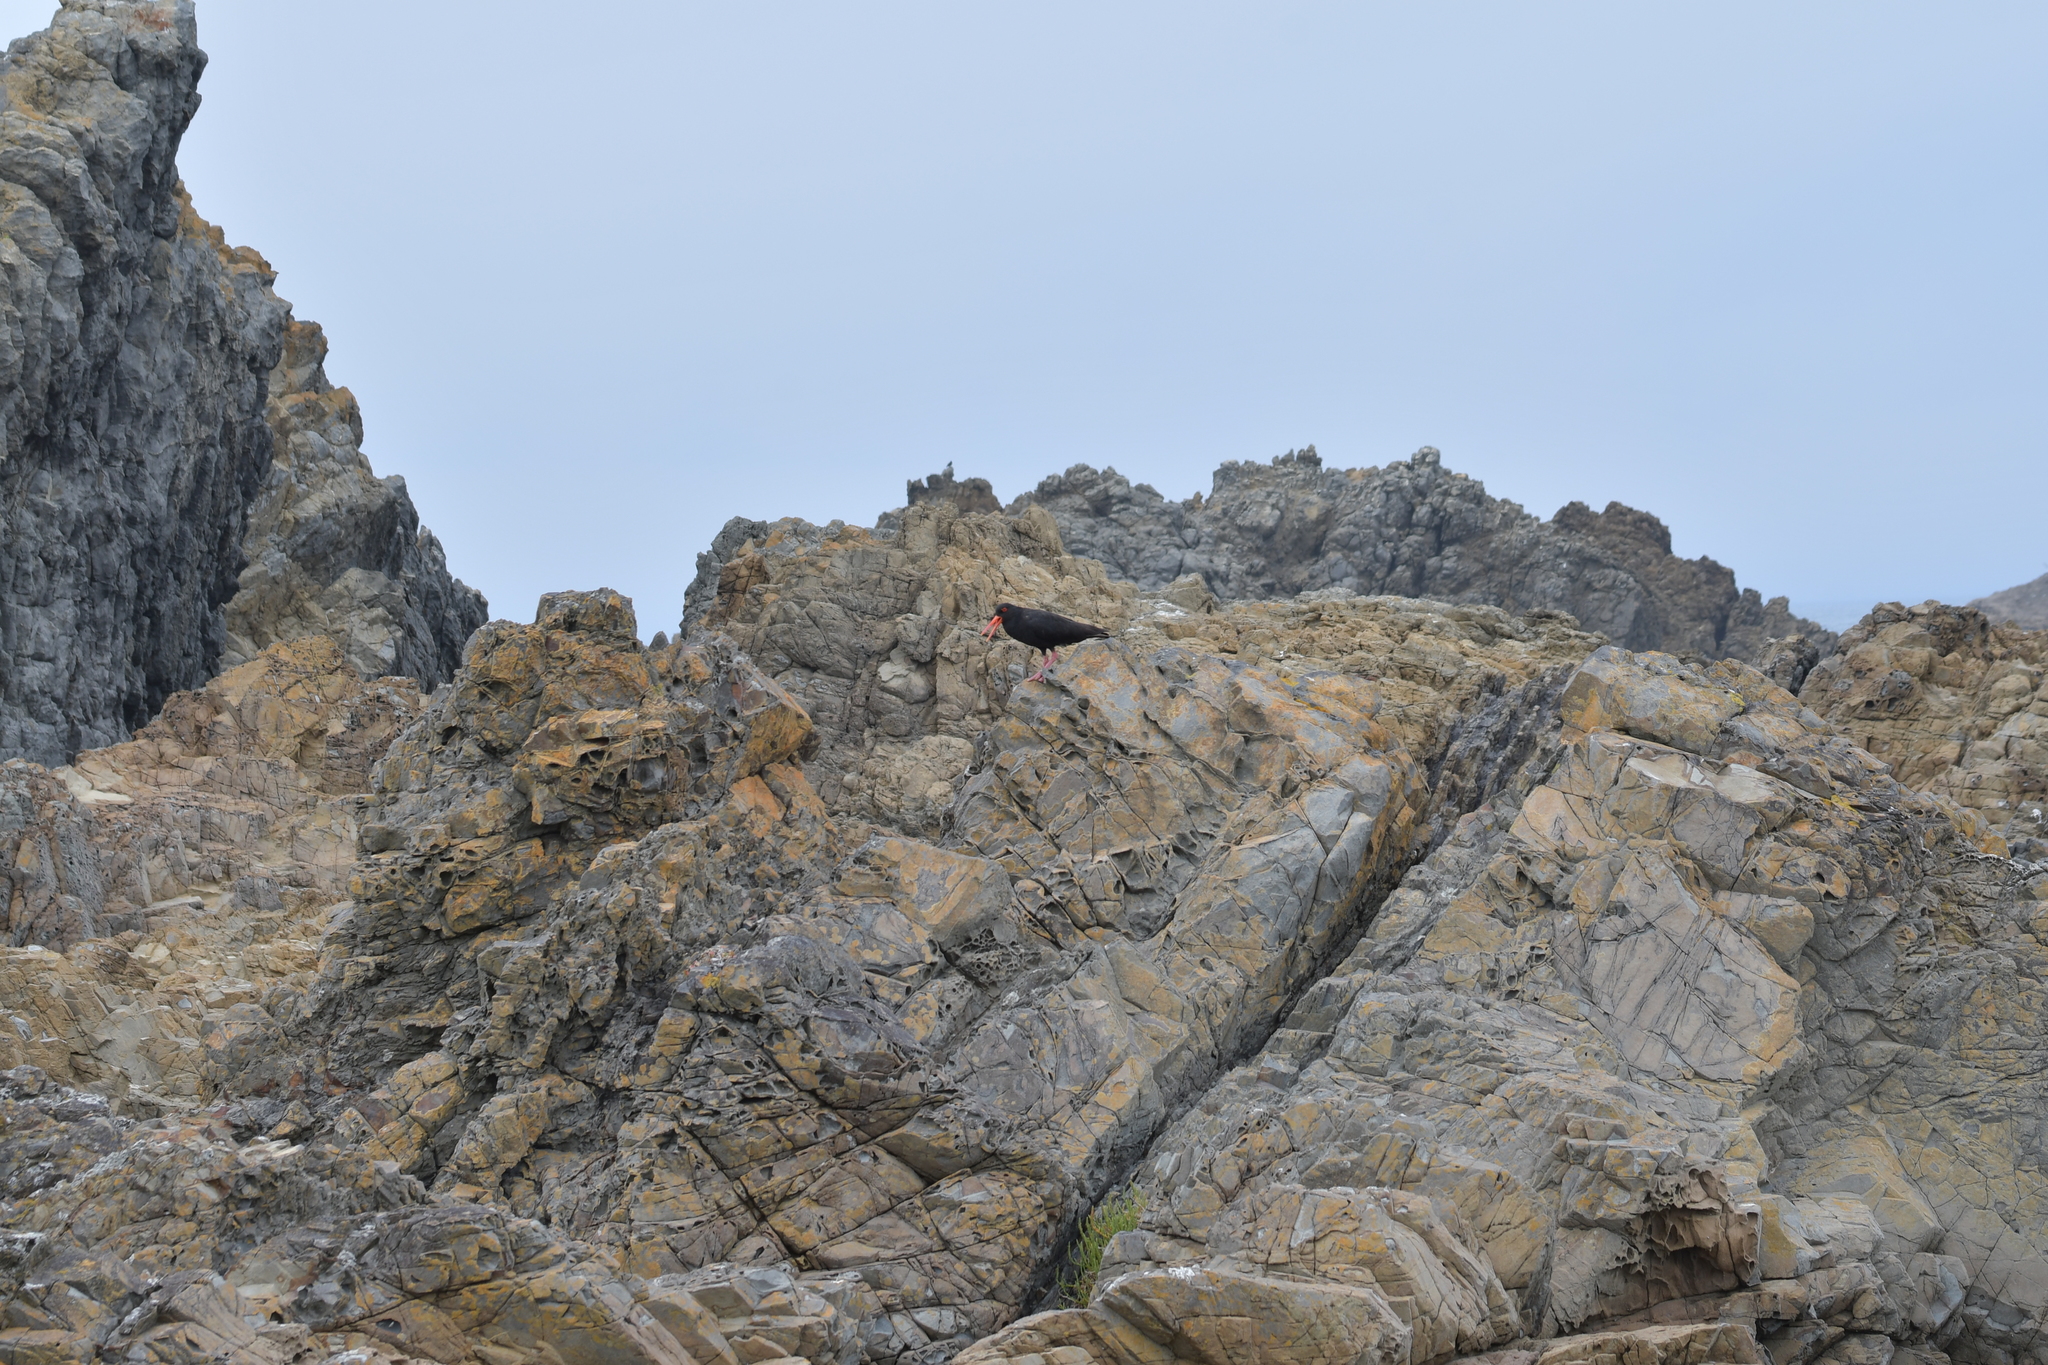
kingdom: Animalia
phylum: Chordata
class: Aves
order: Charadriiformes
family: Haematopodidae
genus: Haematopus
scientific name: Haematopus unicolor
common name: Variable oystercatcher
